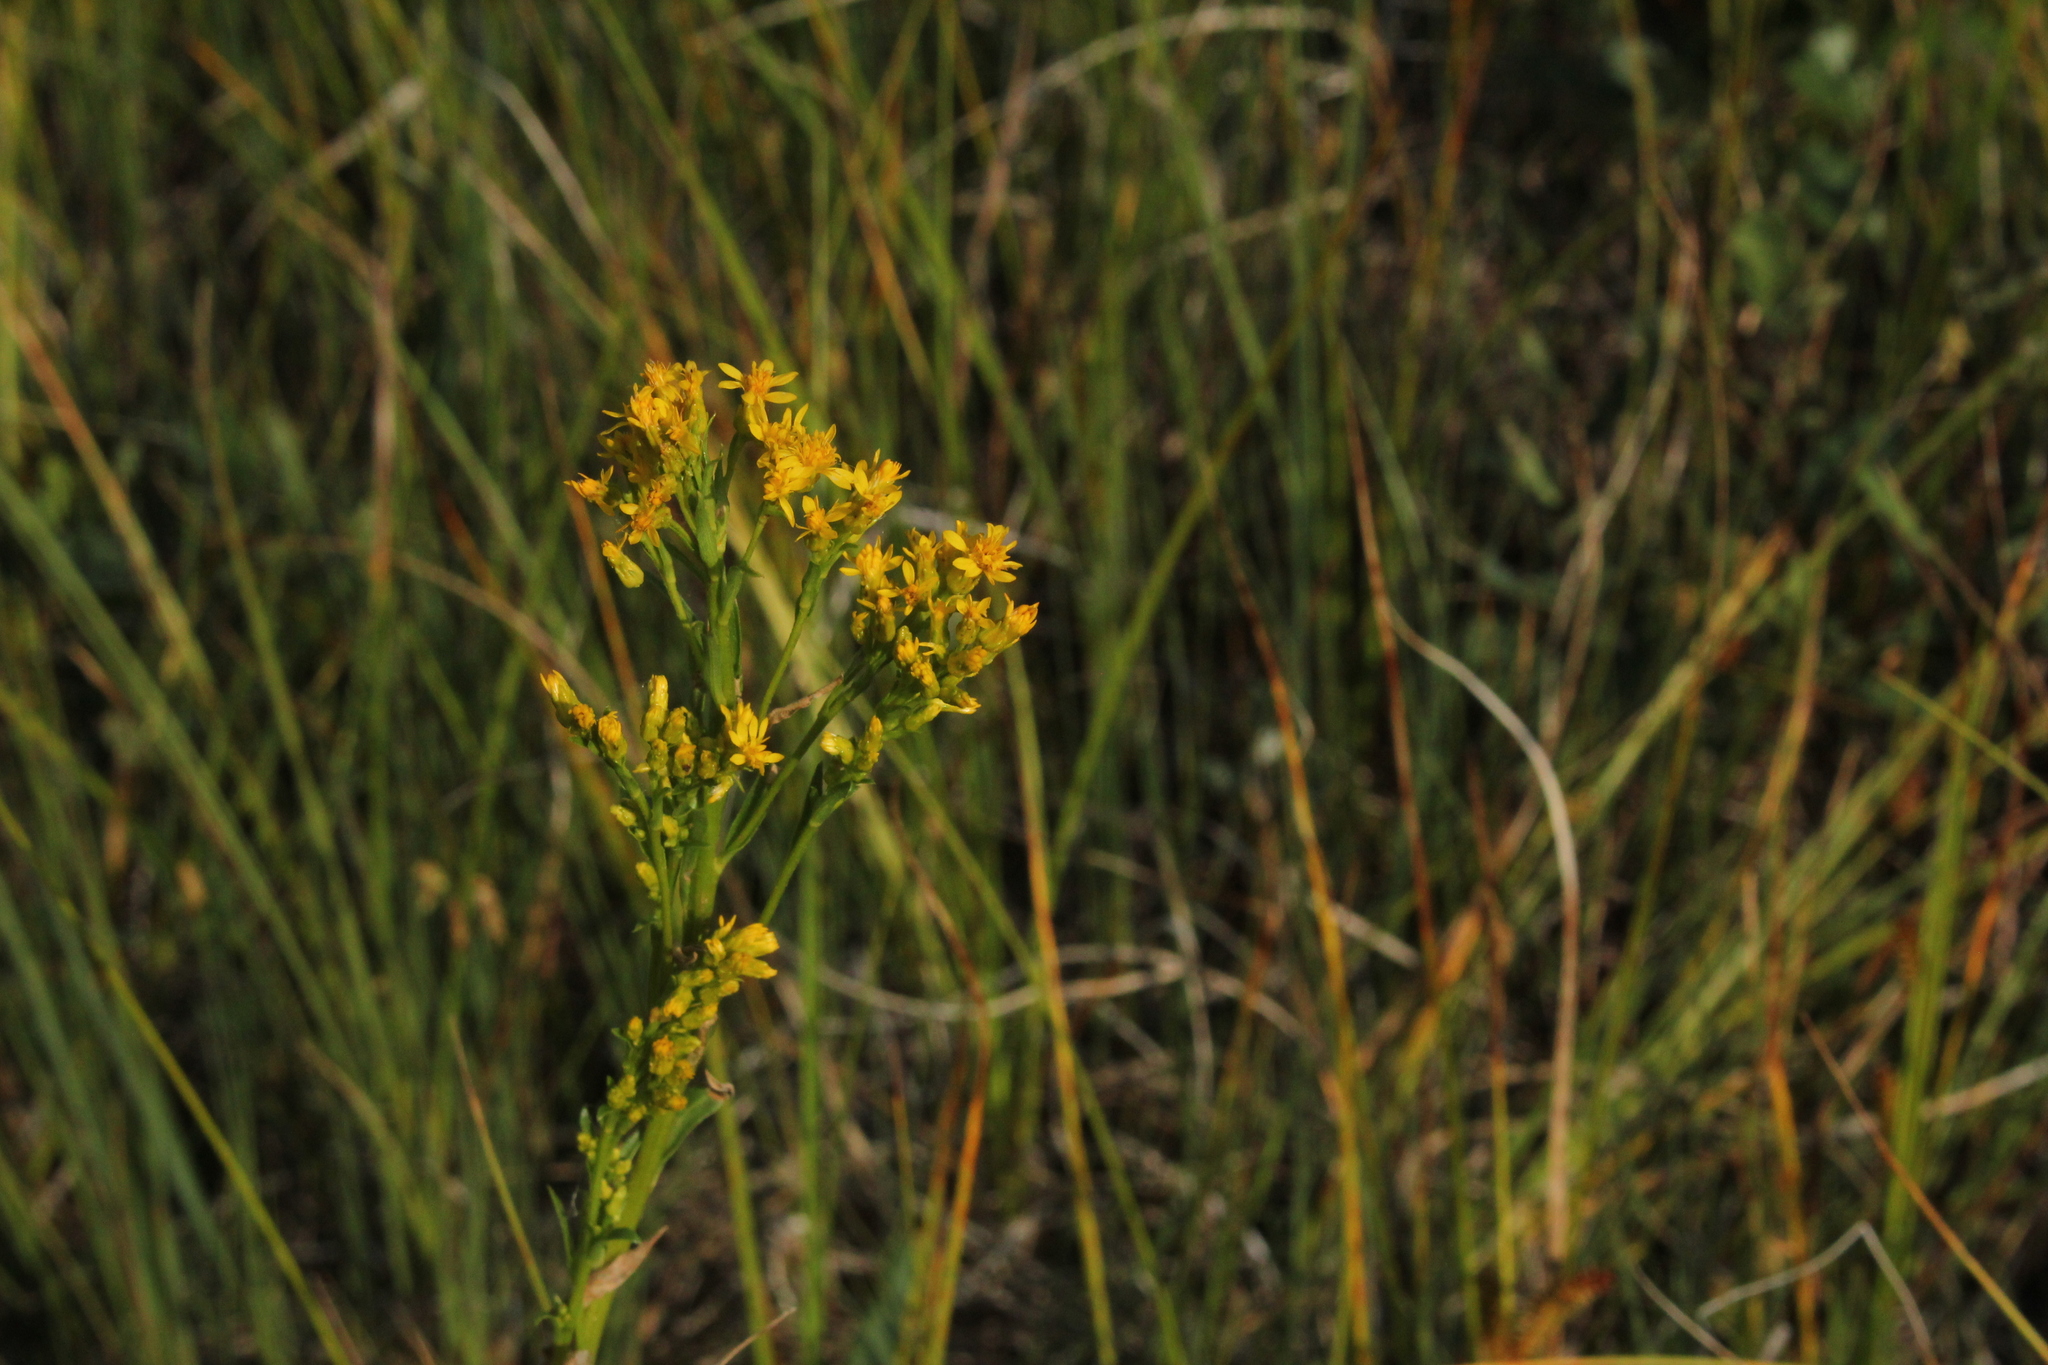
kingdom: Plantae
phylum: Tracheophyta
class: Magnoliopsida
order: Asterales
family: Asteraceae
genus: Solidago
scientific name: Solidago uliginosa
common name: Bog goldenrod
